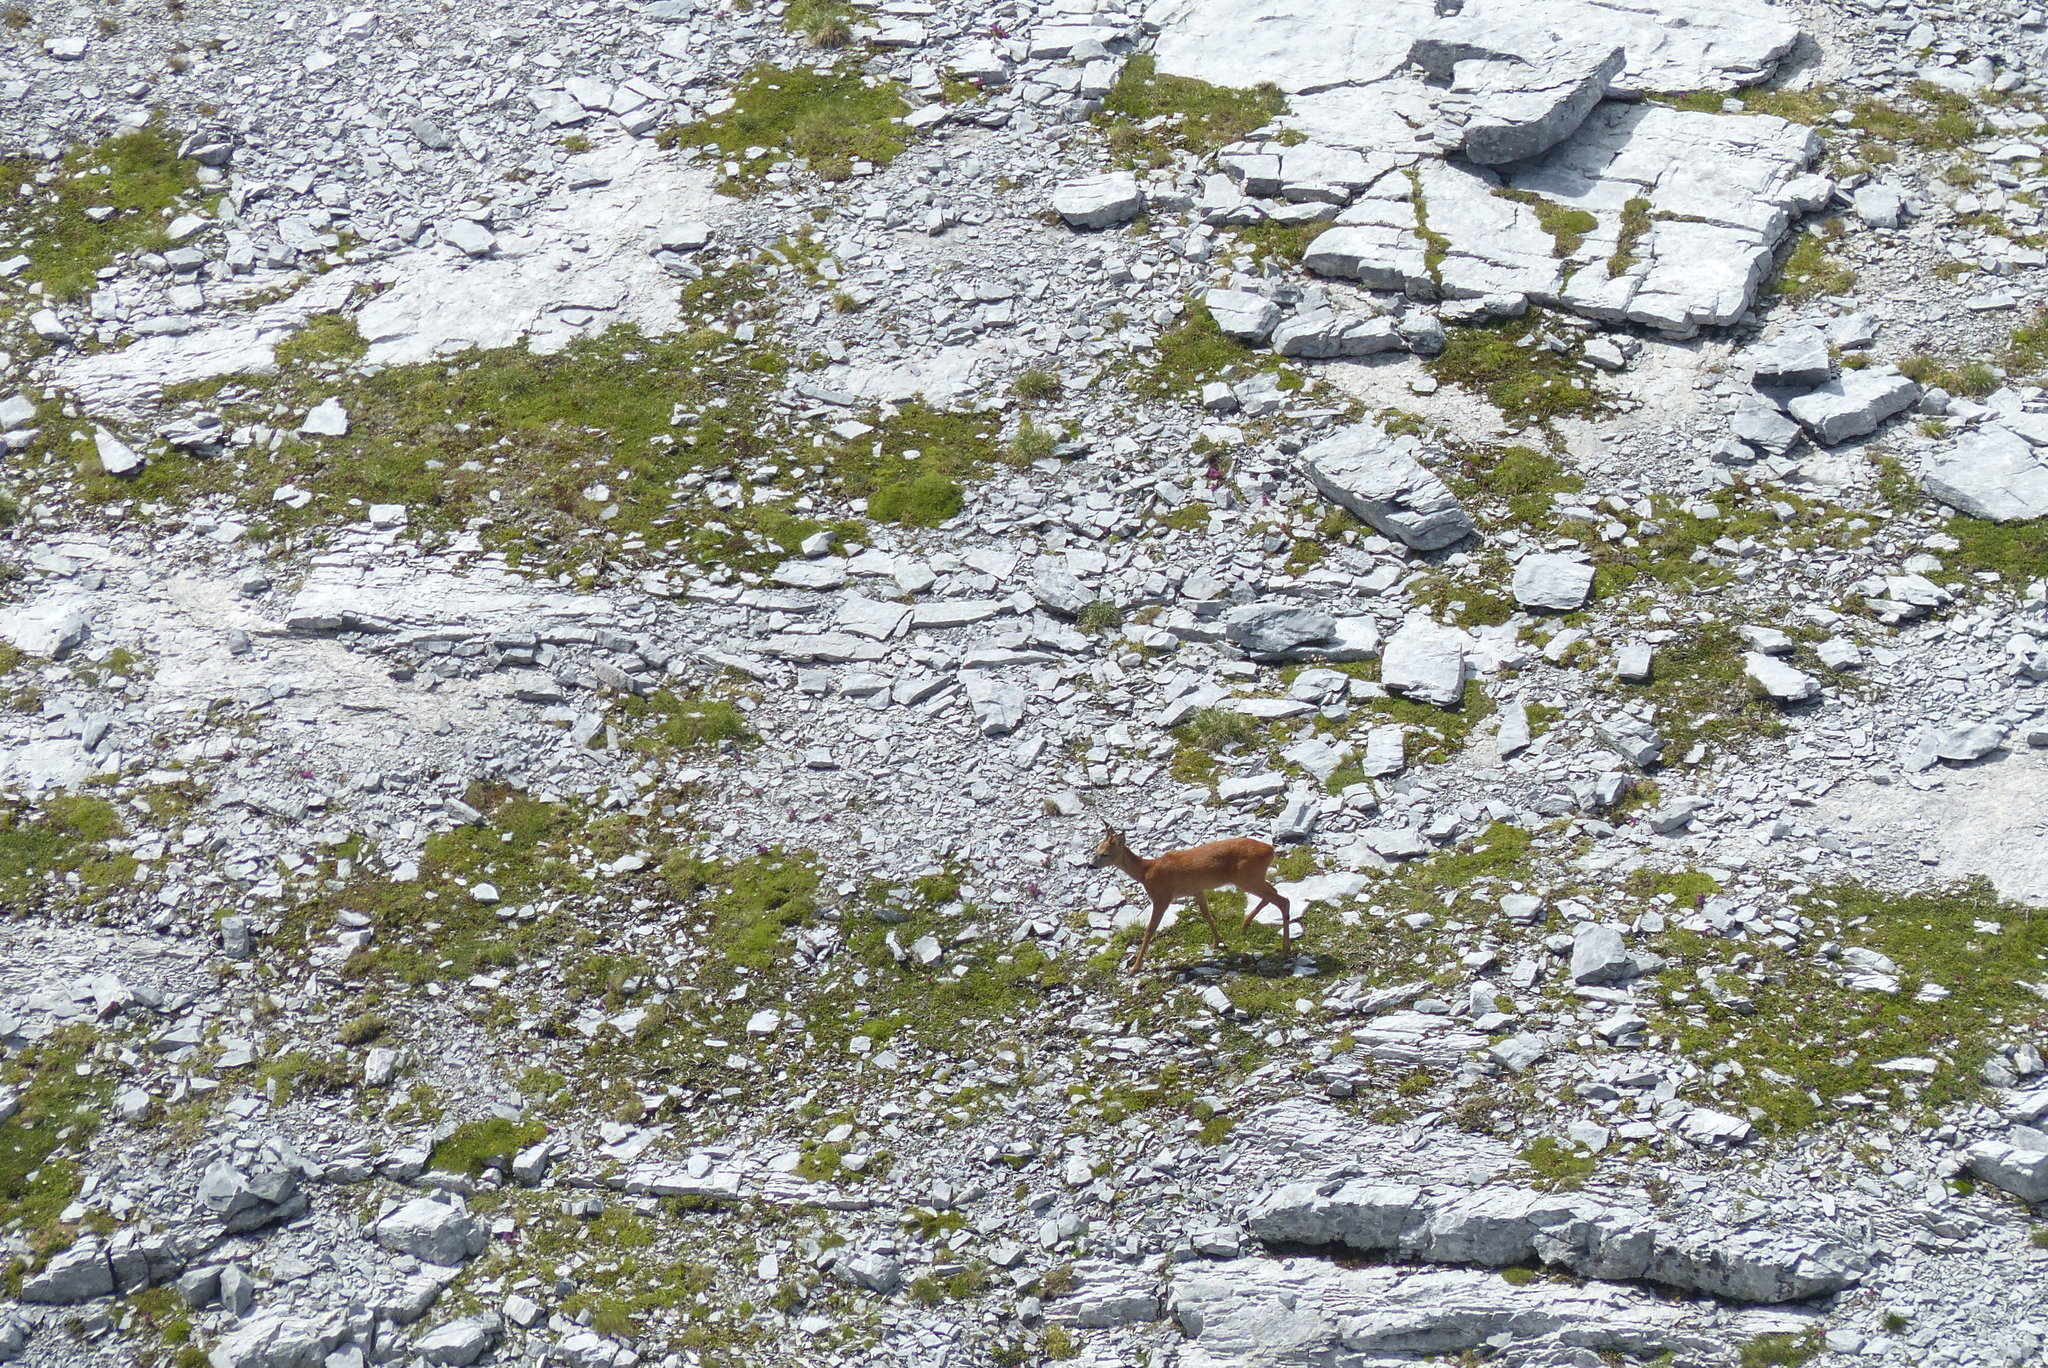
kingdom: Animalia
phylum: Chordata
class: Mammalia
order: Artiodactyla
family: Cervidae
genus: Capreolus
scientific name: Capreolus capreolus
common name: Western roe deer
